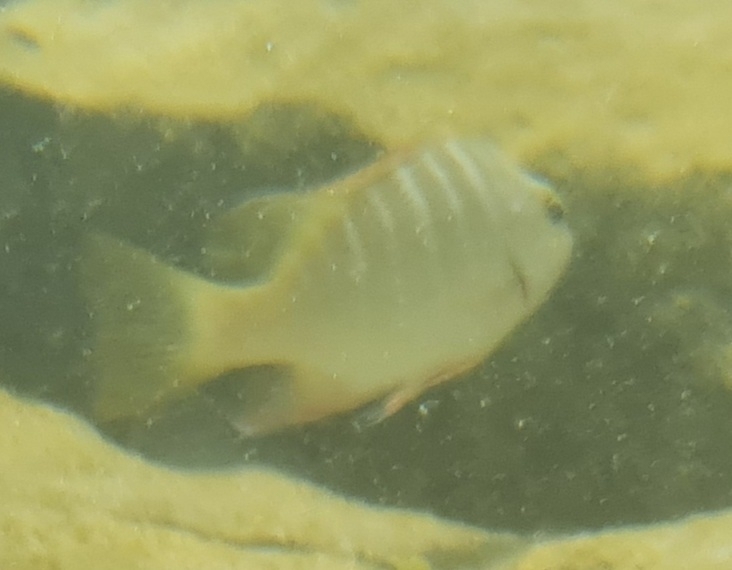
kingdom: Animalia
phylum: Chordata
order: Perciformes
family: Lutjanidae
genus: Lutjanus
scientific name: Lutjanus apodus
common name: Schoolmaster
